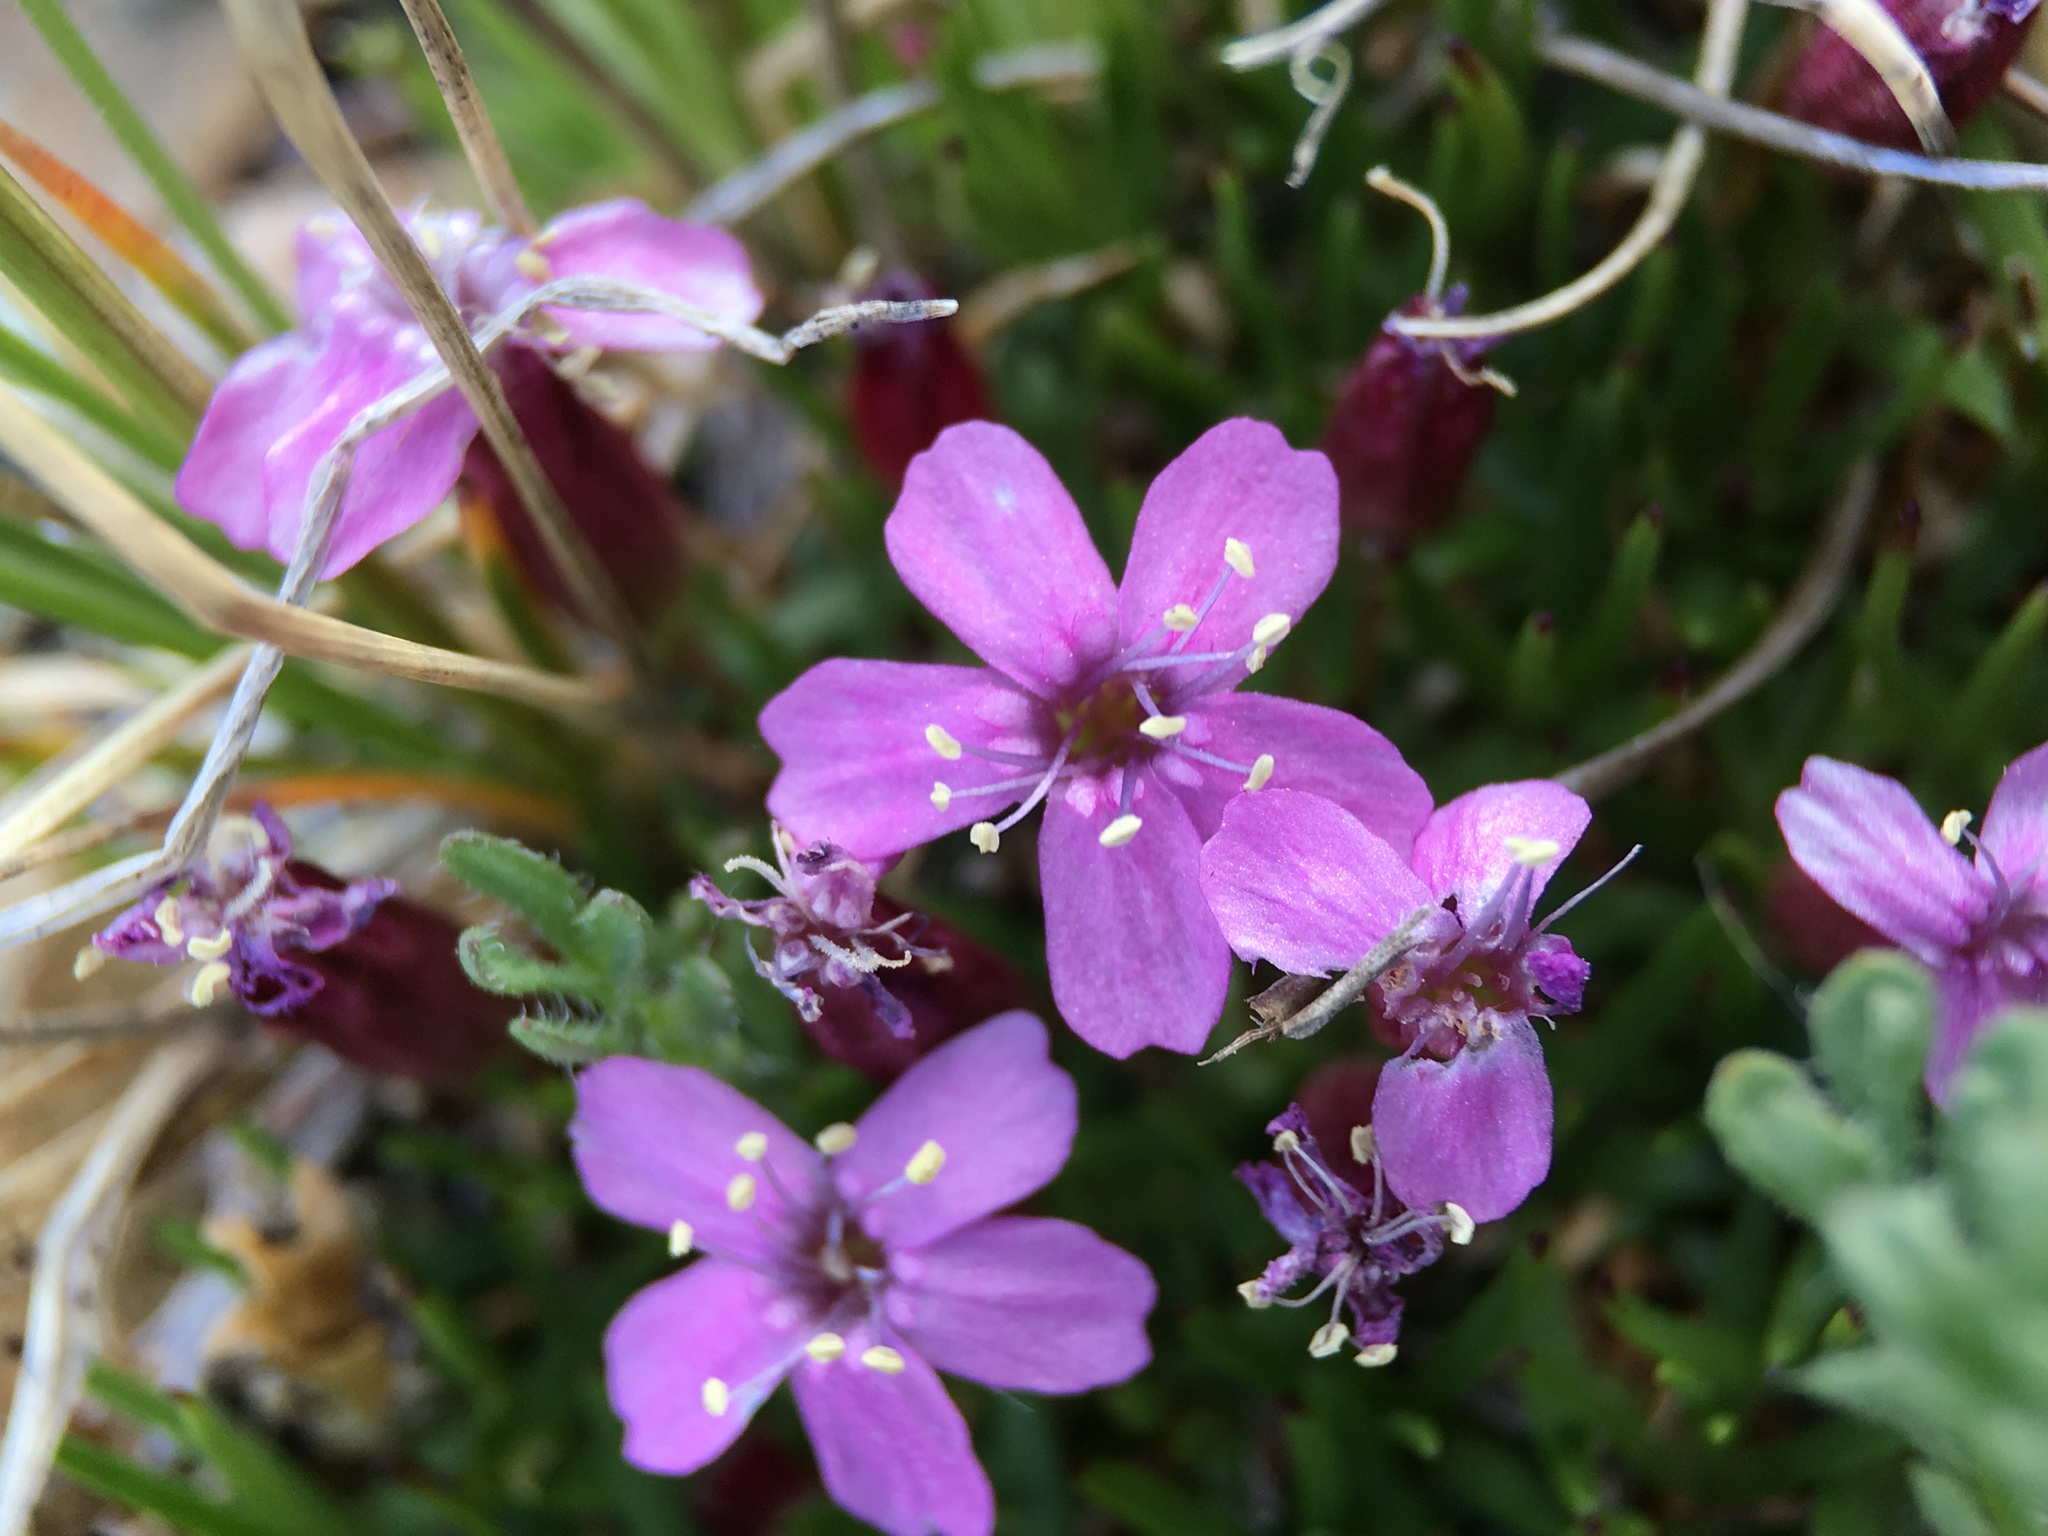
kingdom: Plantae
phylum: Tracheophyta
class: Magnoliopsida
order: Caryophyllales
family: Caryophyllaceae
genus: Silene
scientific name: Silene acaulis
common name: Moss campion
